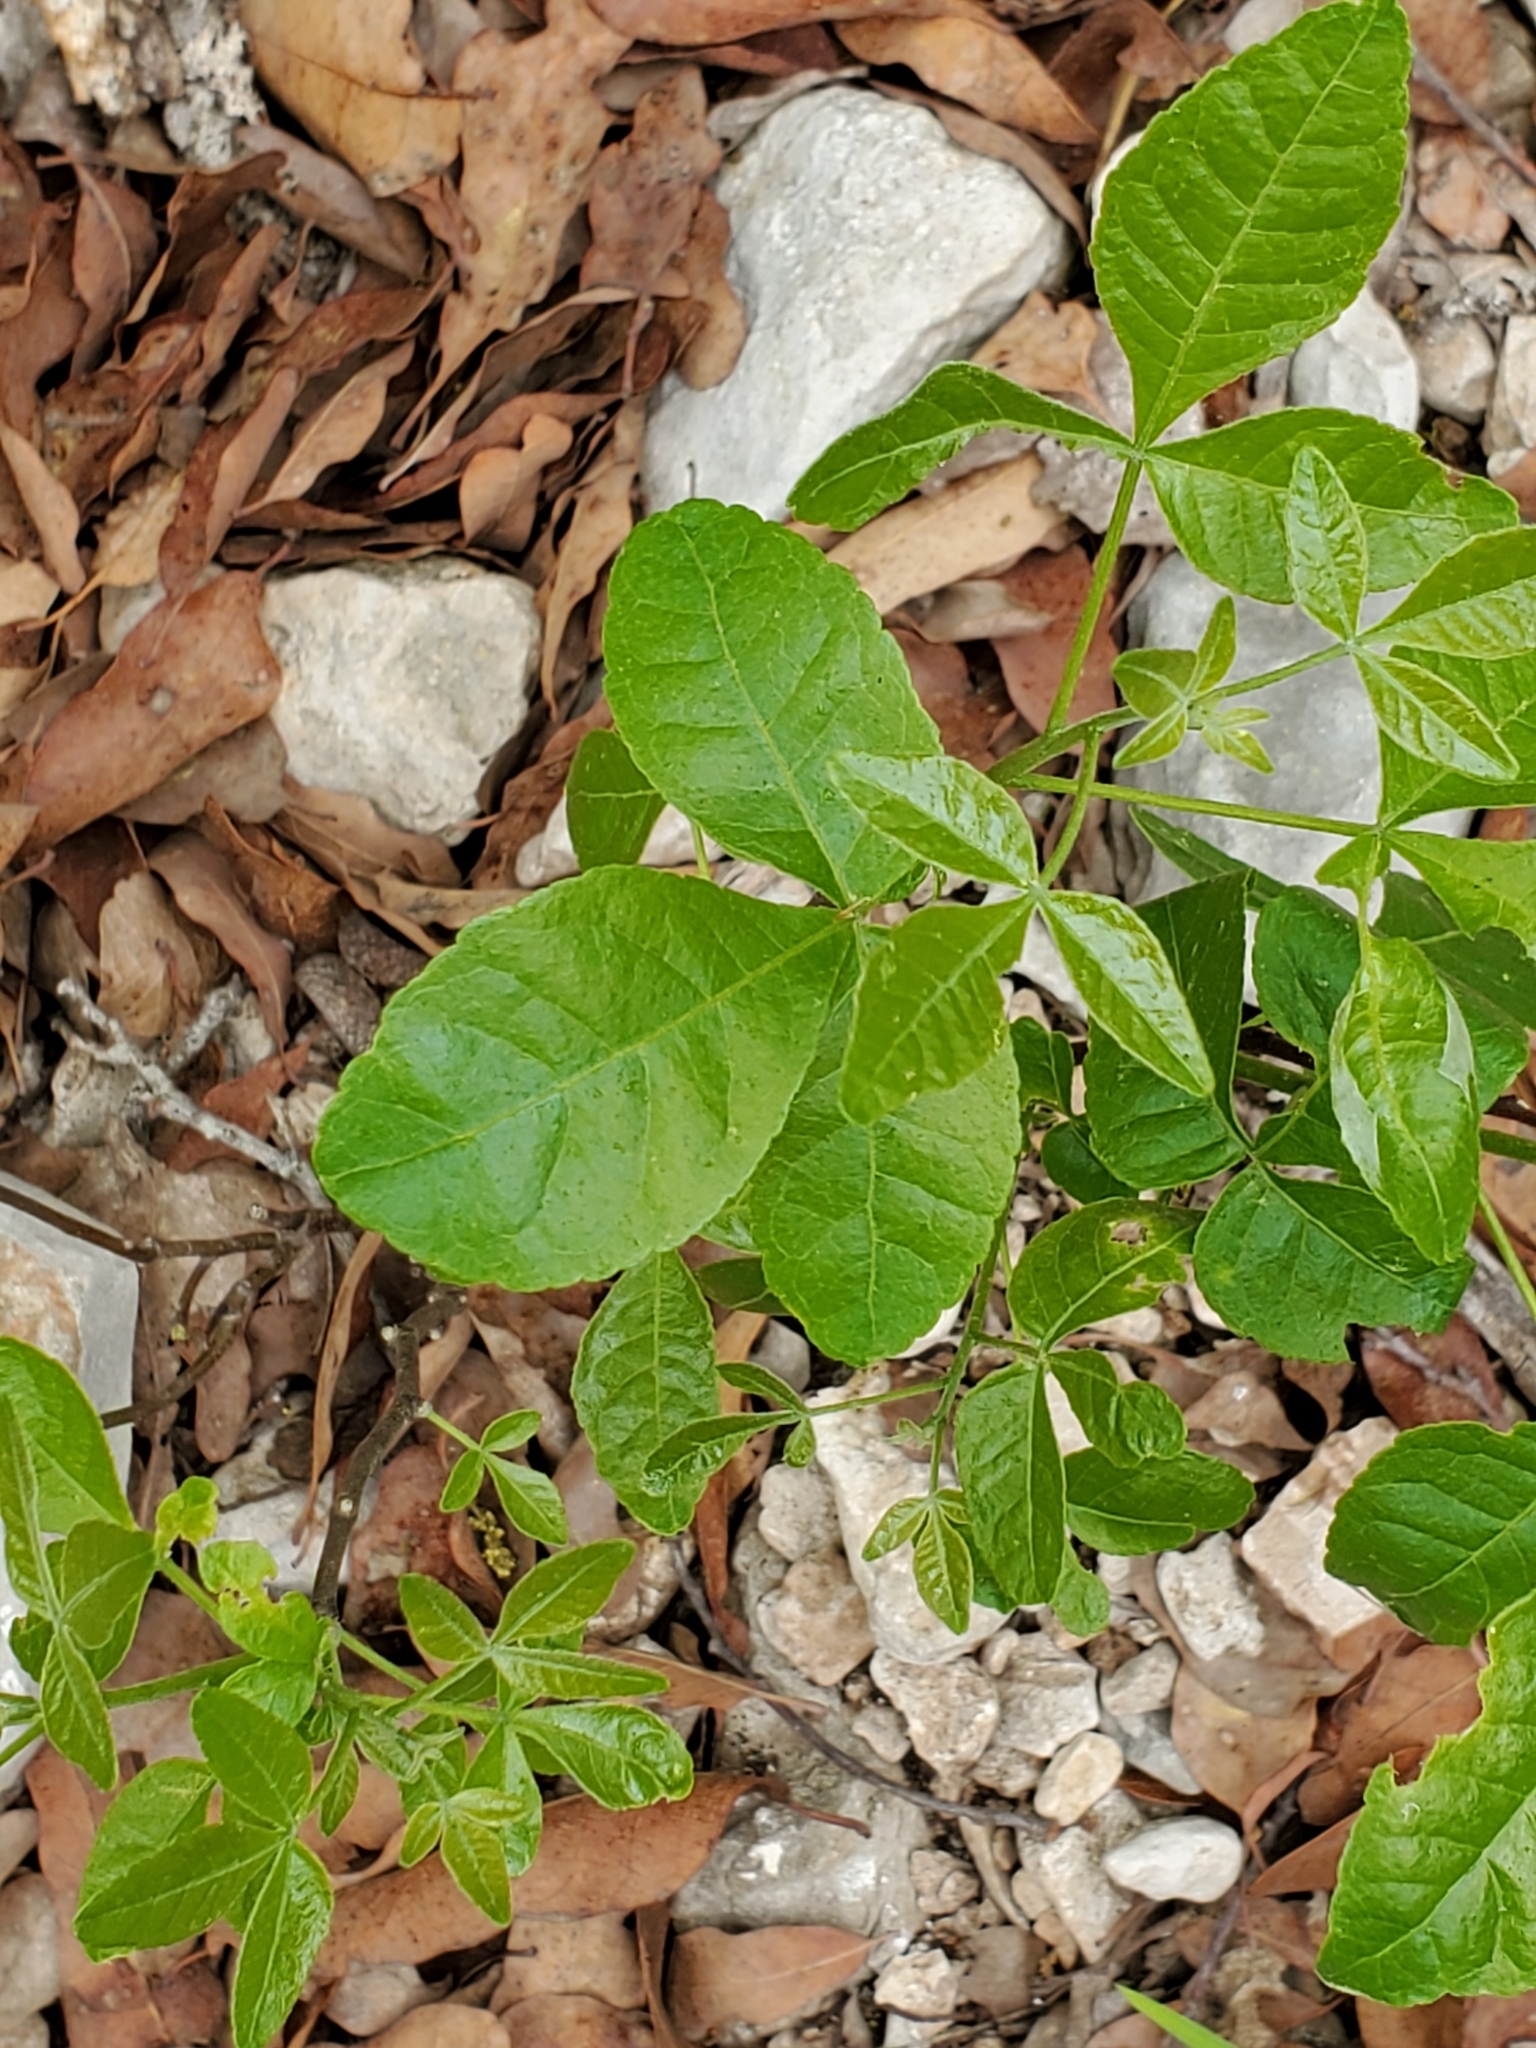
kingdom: Plantae
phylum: Tracheophyta
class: Magnoliopsida
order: Sapindales
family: Rutaceae
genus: Ptelea
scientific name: Ptelea trifoliata
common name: Common hop-tree
